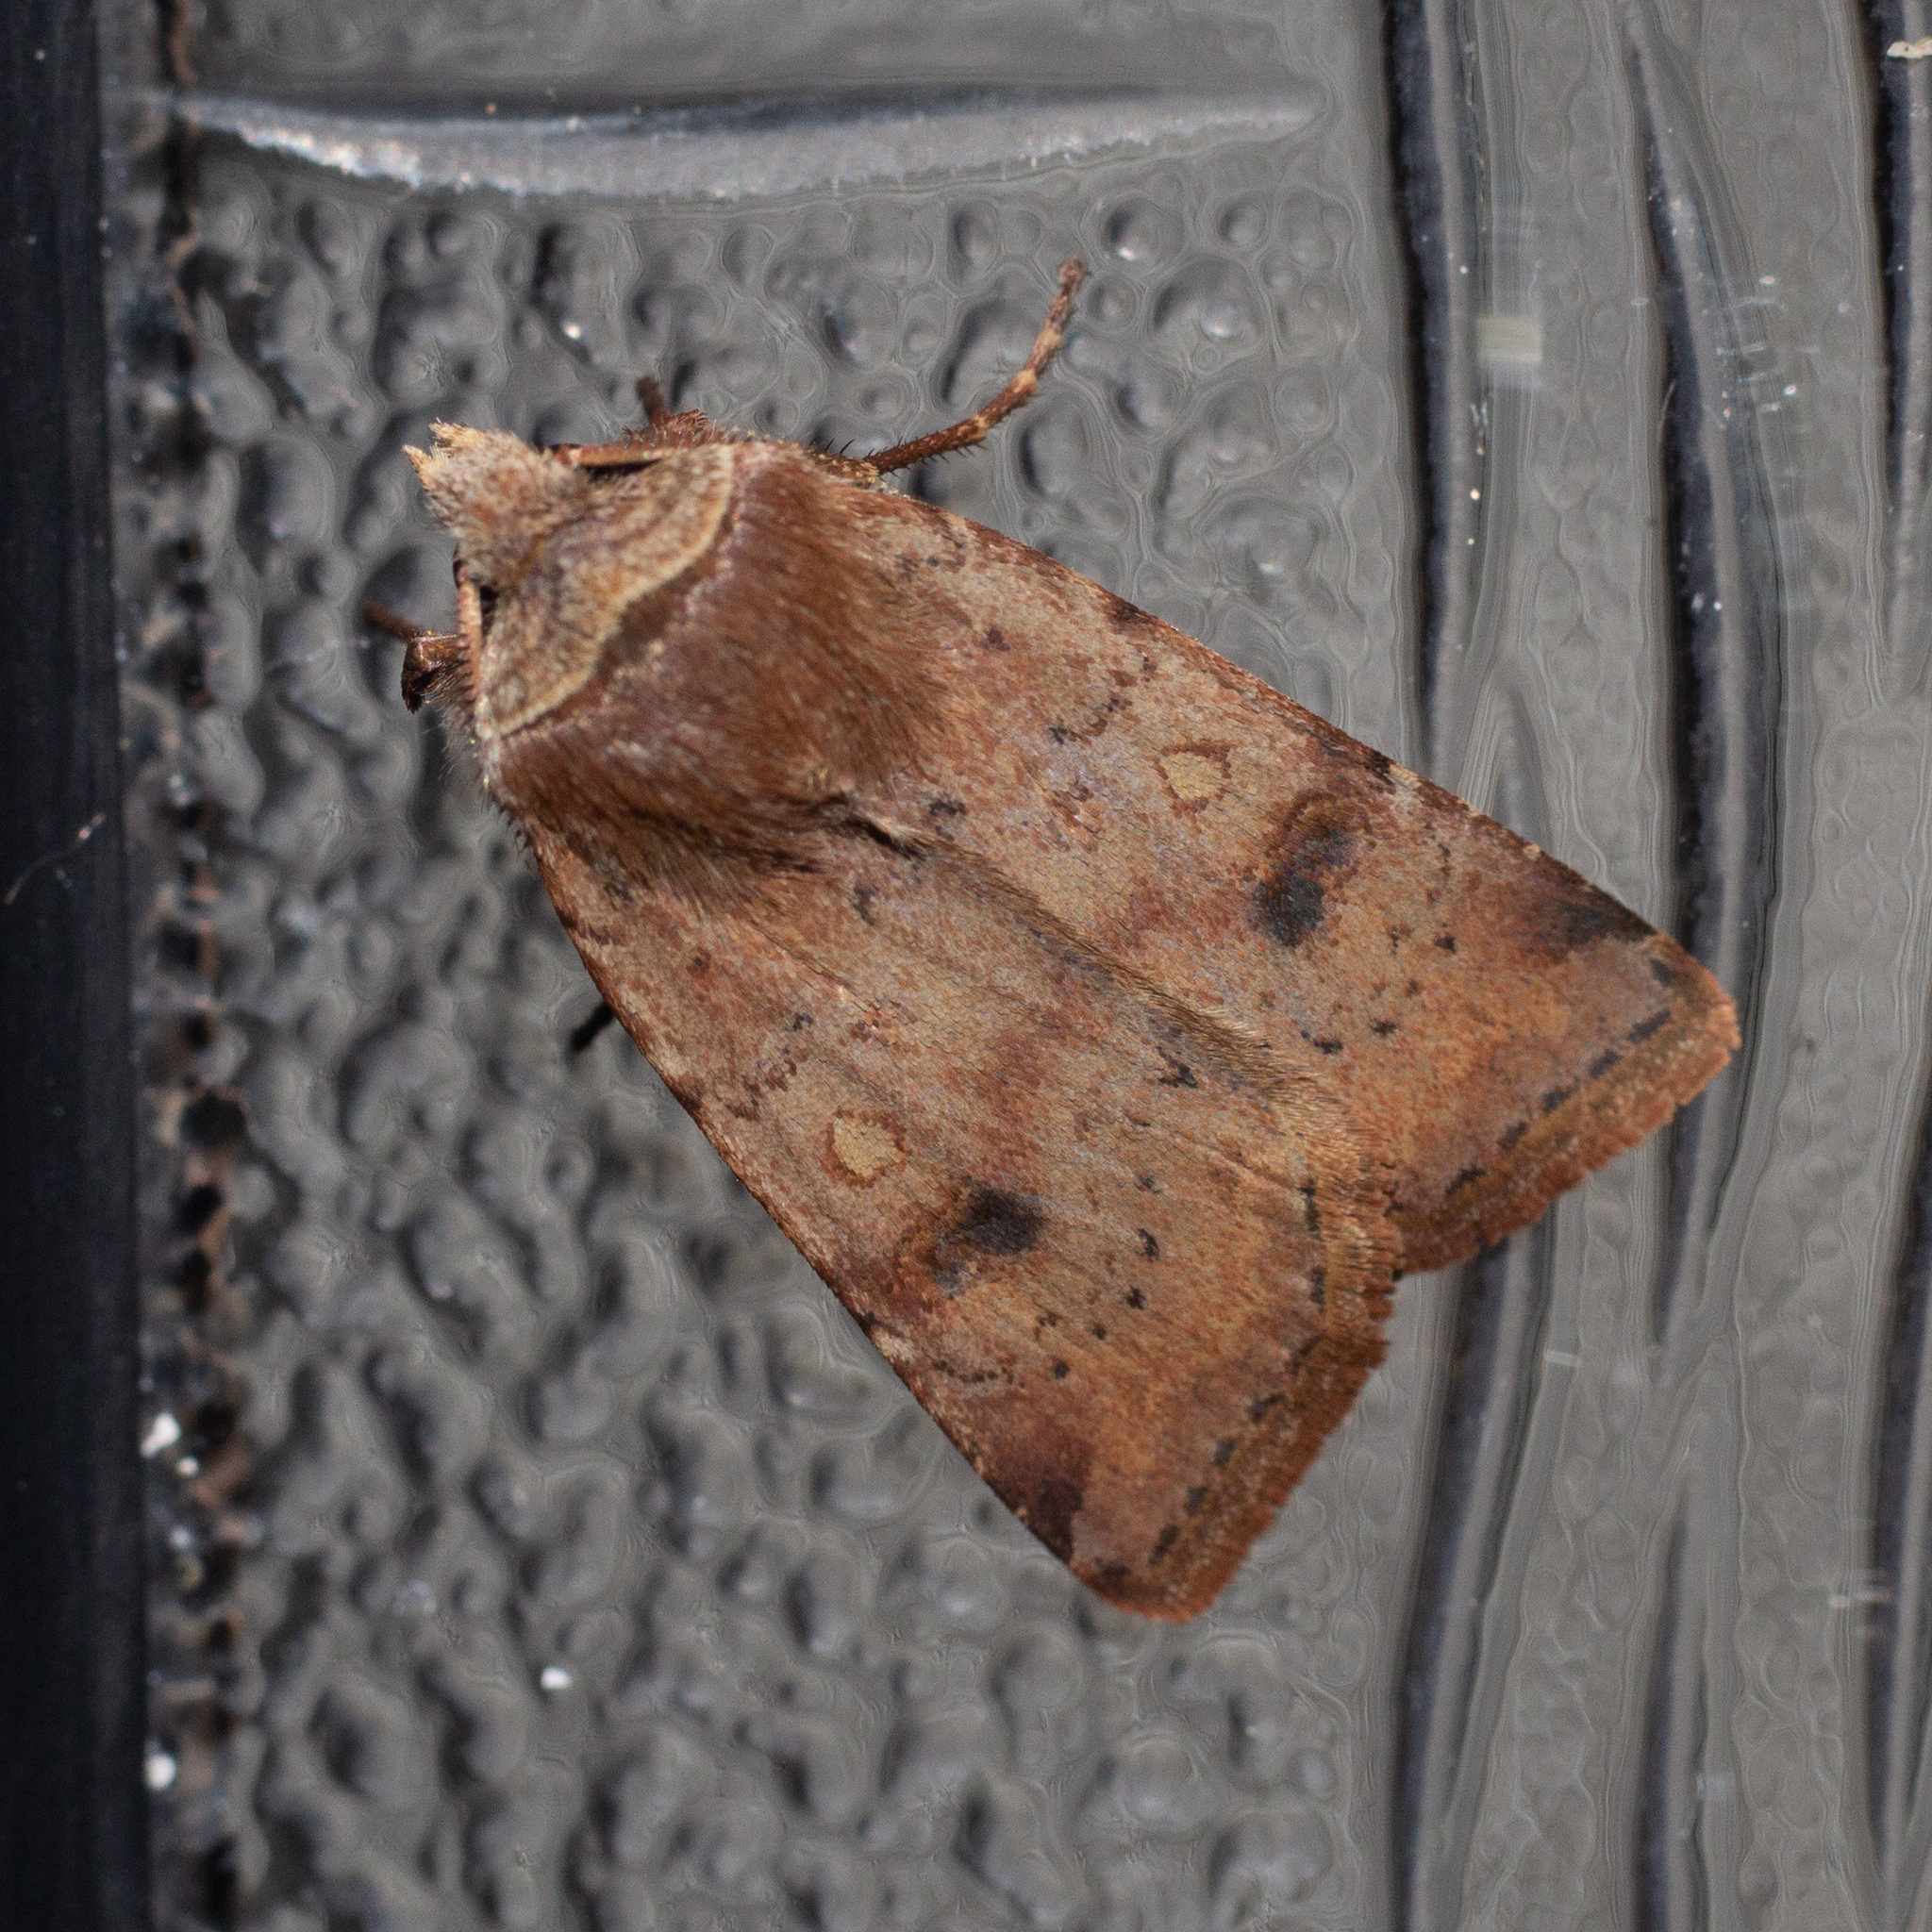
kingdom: Animalia
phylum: Arthropoda
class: Insecta
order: Lepidoptera
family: Noctuidae
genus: Cerastis
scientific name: Cerastis faceta
